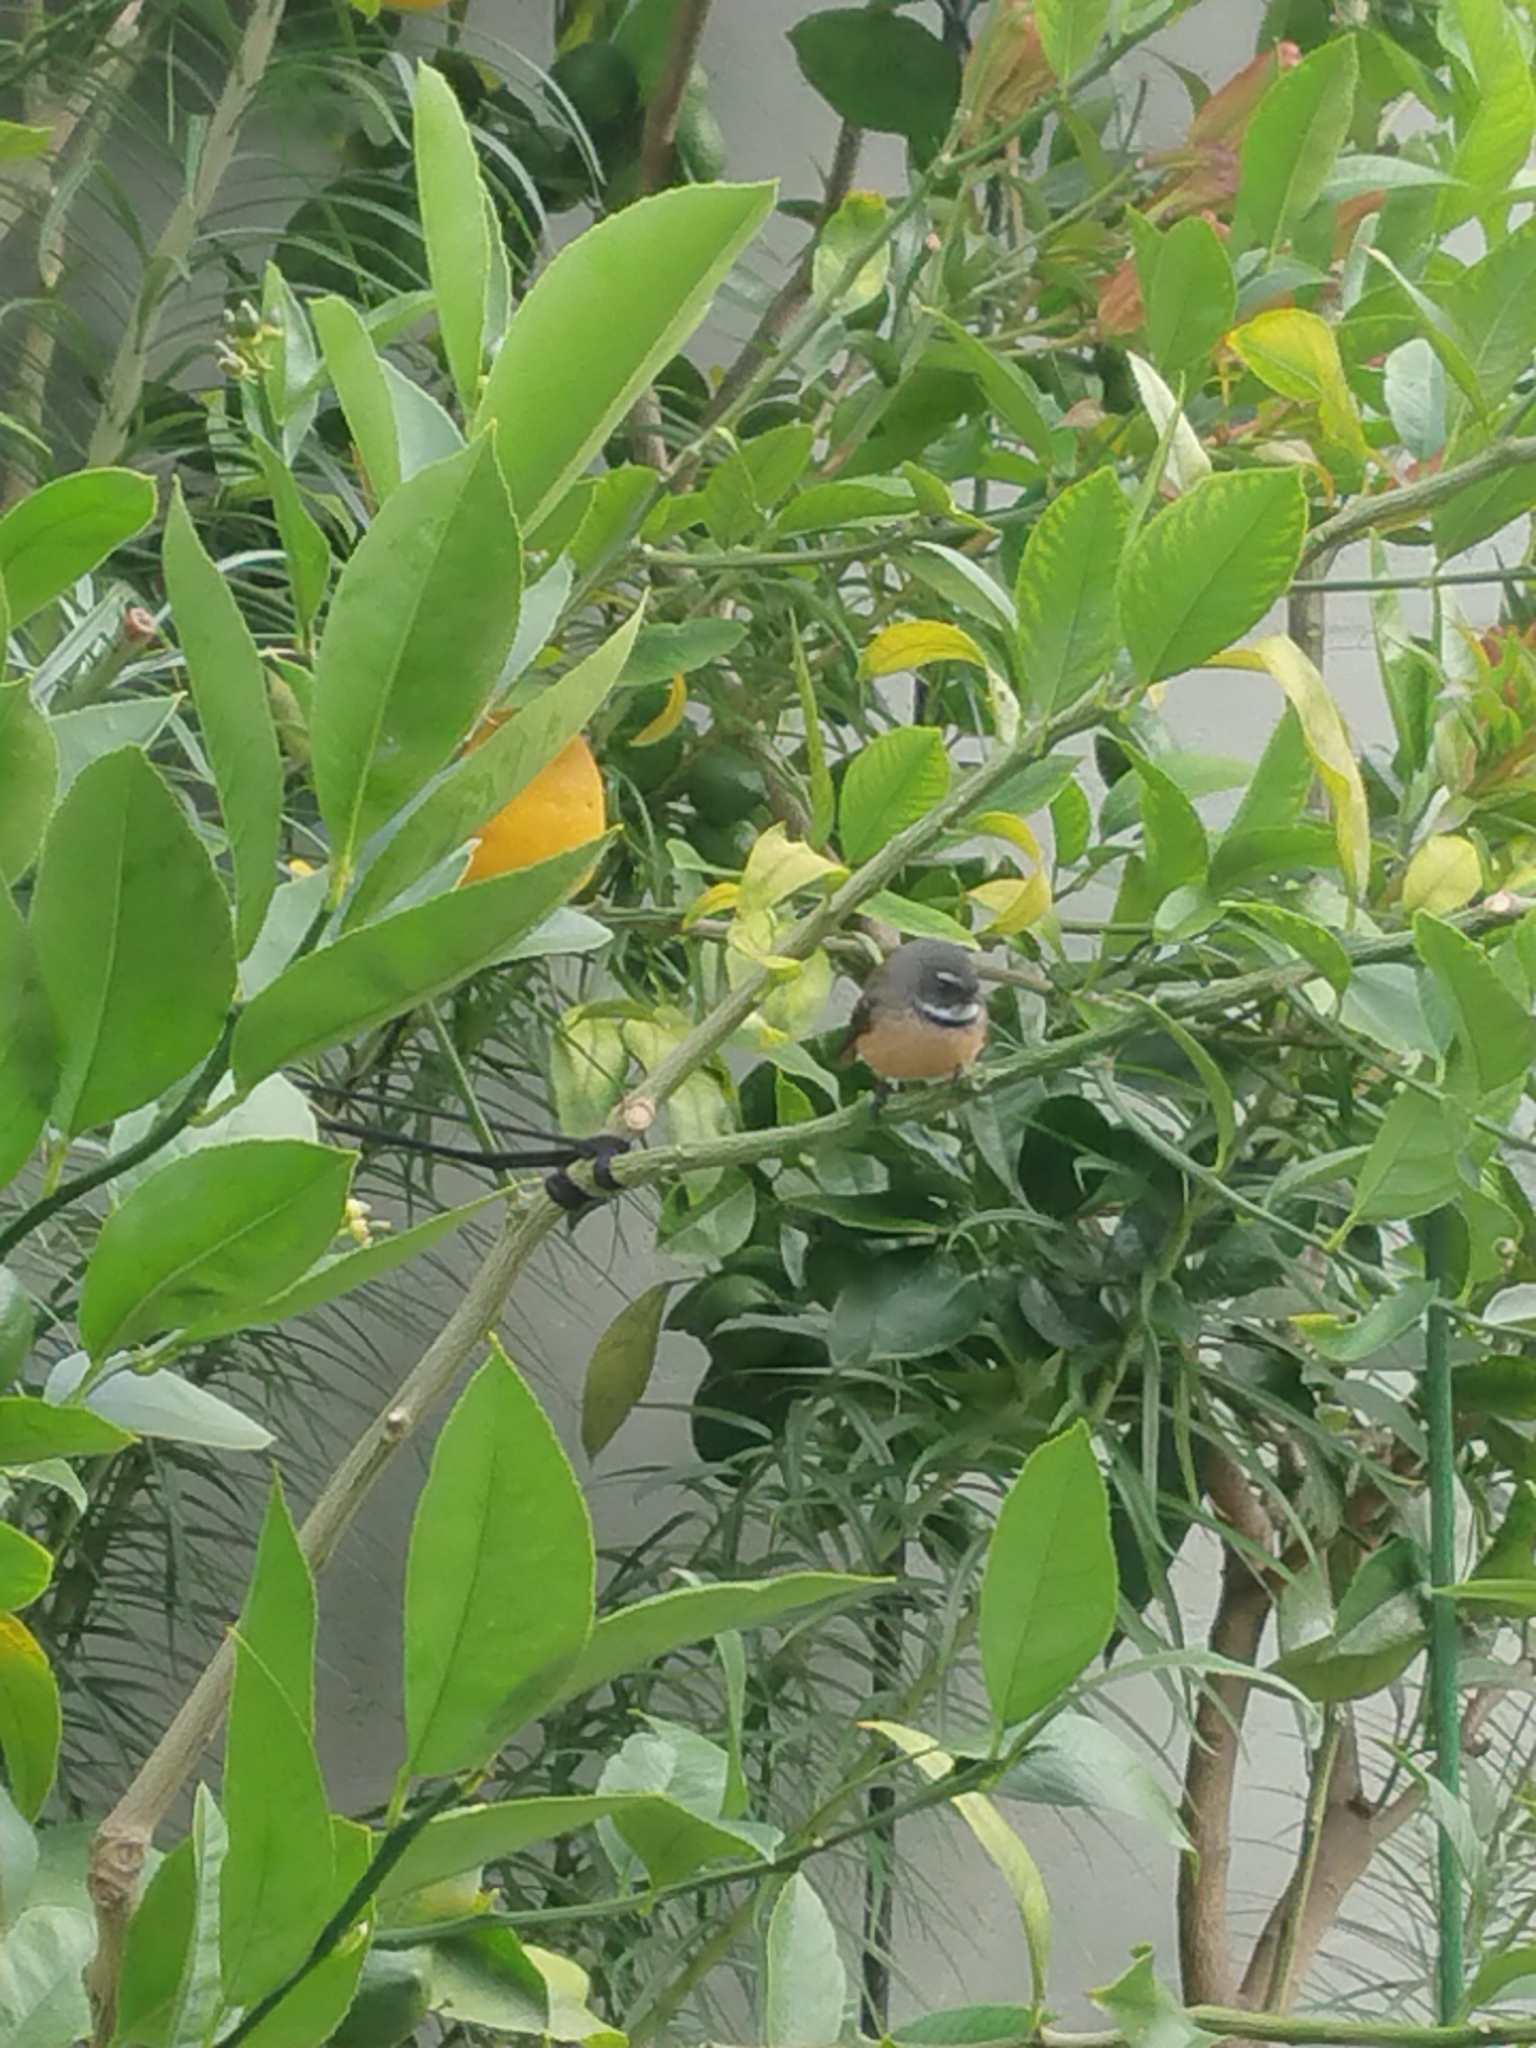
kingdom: Animalia
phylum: Chordata
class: Aves
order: Passeriformes
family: Rhipiduridae
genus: Rhipidura
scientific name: Rhipidura fuliginosa
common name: New zealand fantail
